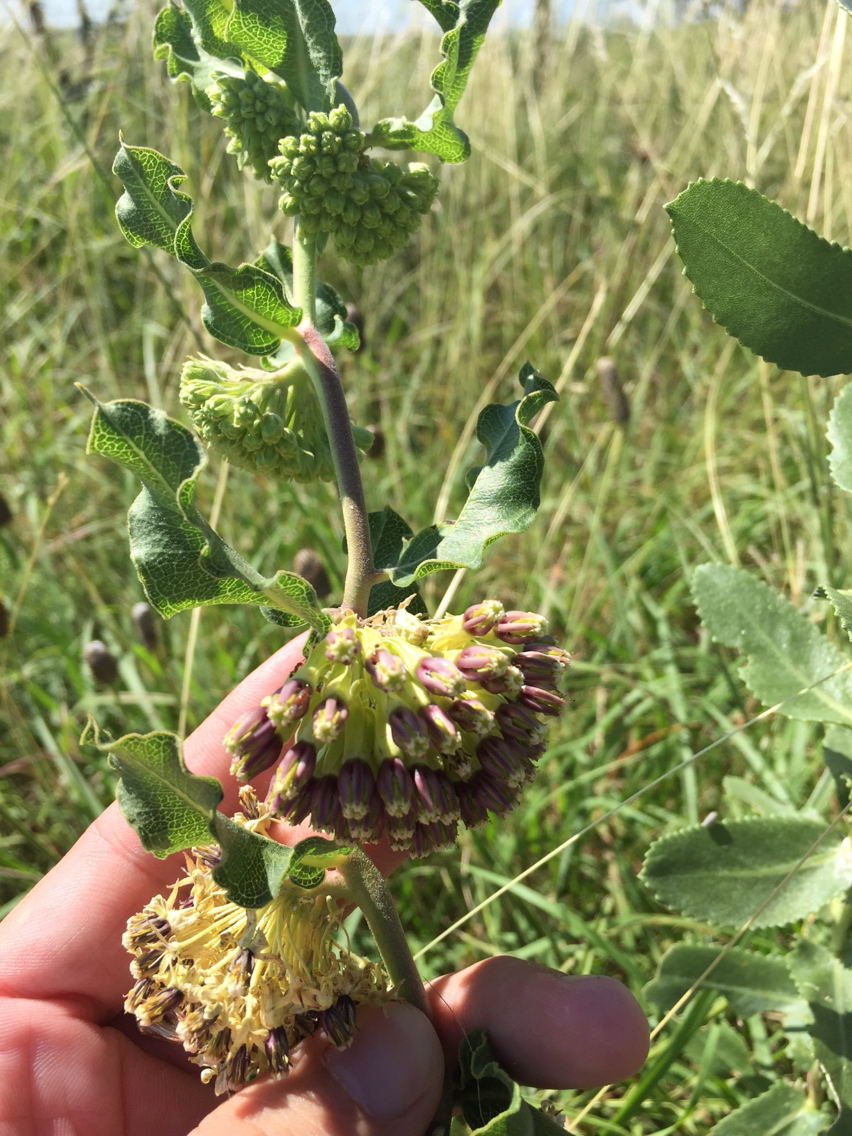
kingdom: Plantae
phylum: Tracheophyta
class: Magnoliopsida
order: Gentianales
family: Apocynaceae
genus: Asclepias
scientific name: Asclepias viridiflora
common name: Green comet milkweed
